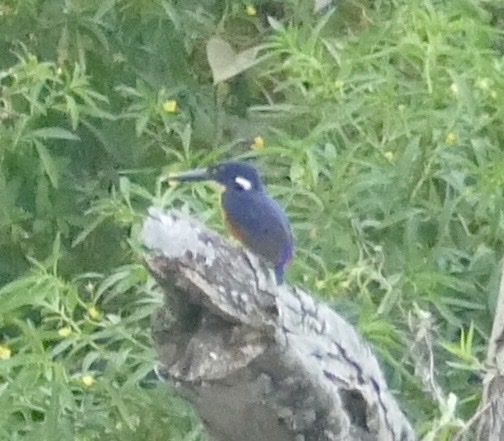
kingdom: Animalia
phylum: Chordata
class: Aves
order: Coraciiformes
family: Alcedinidae
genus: Ceyx
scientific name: Ceyx azureus
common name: Azure kingfisher
